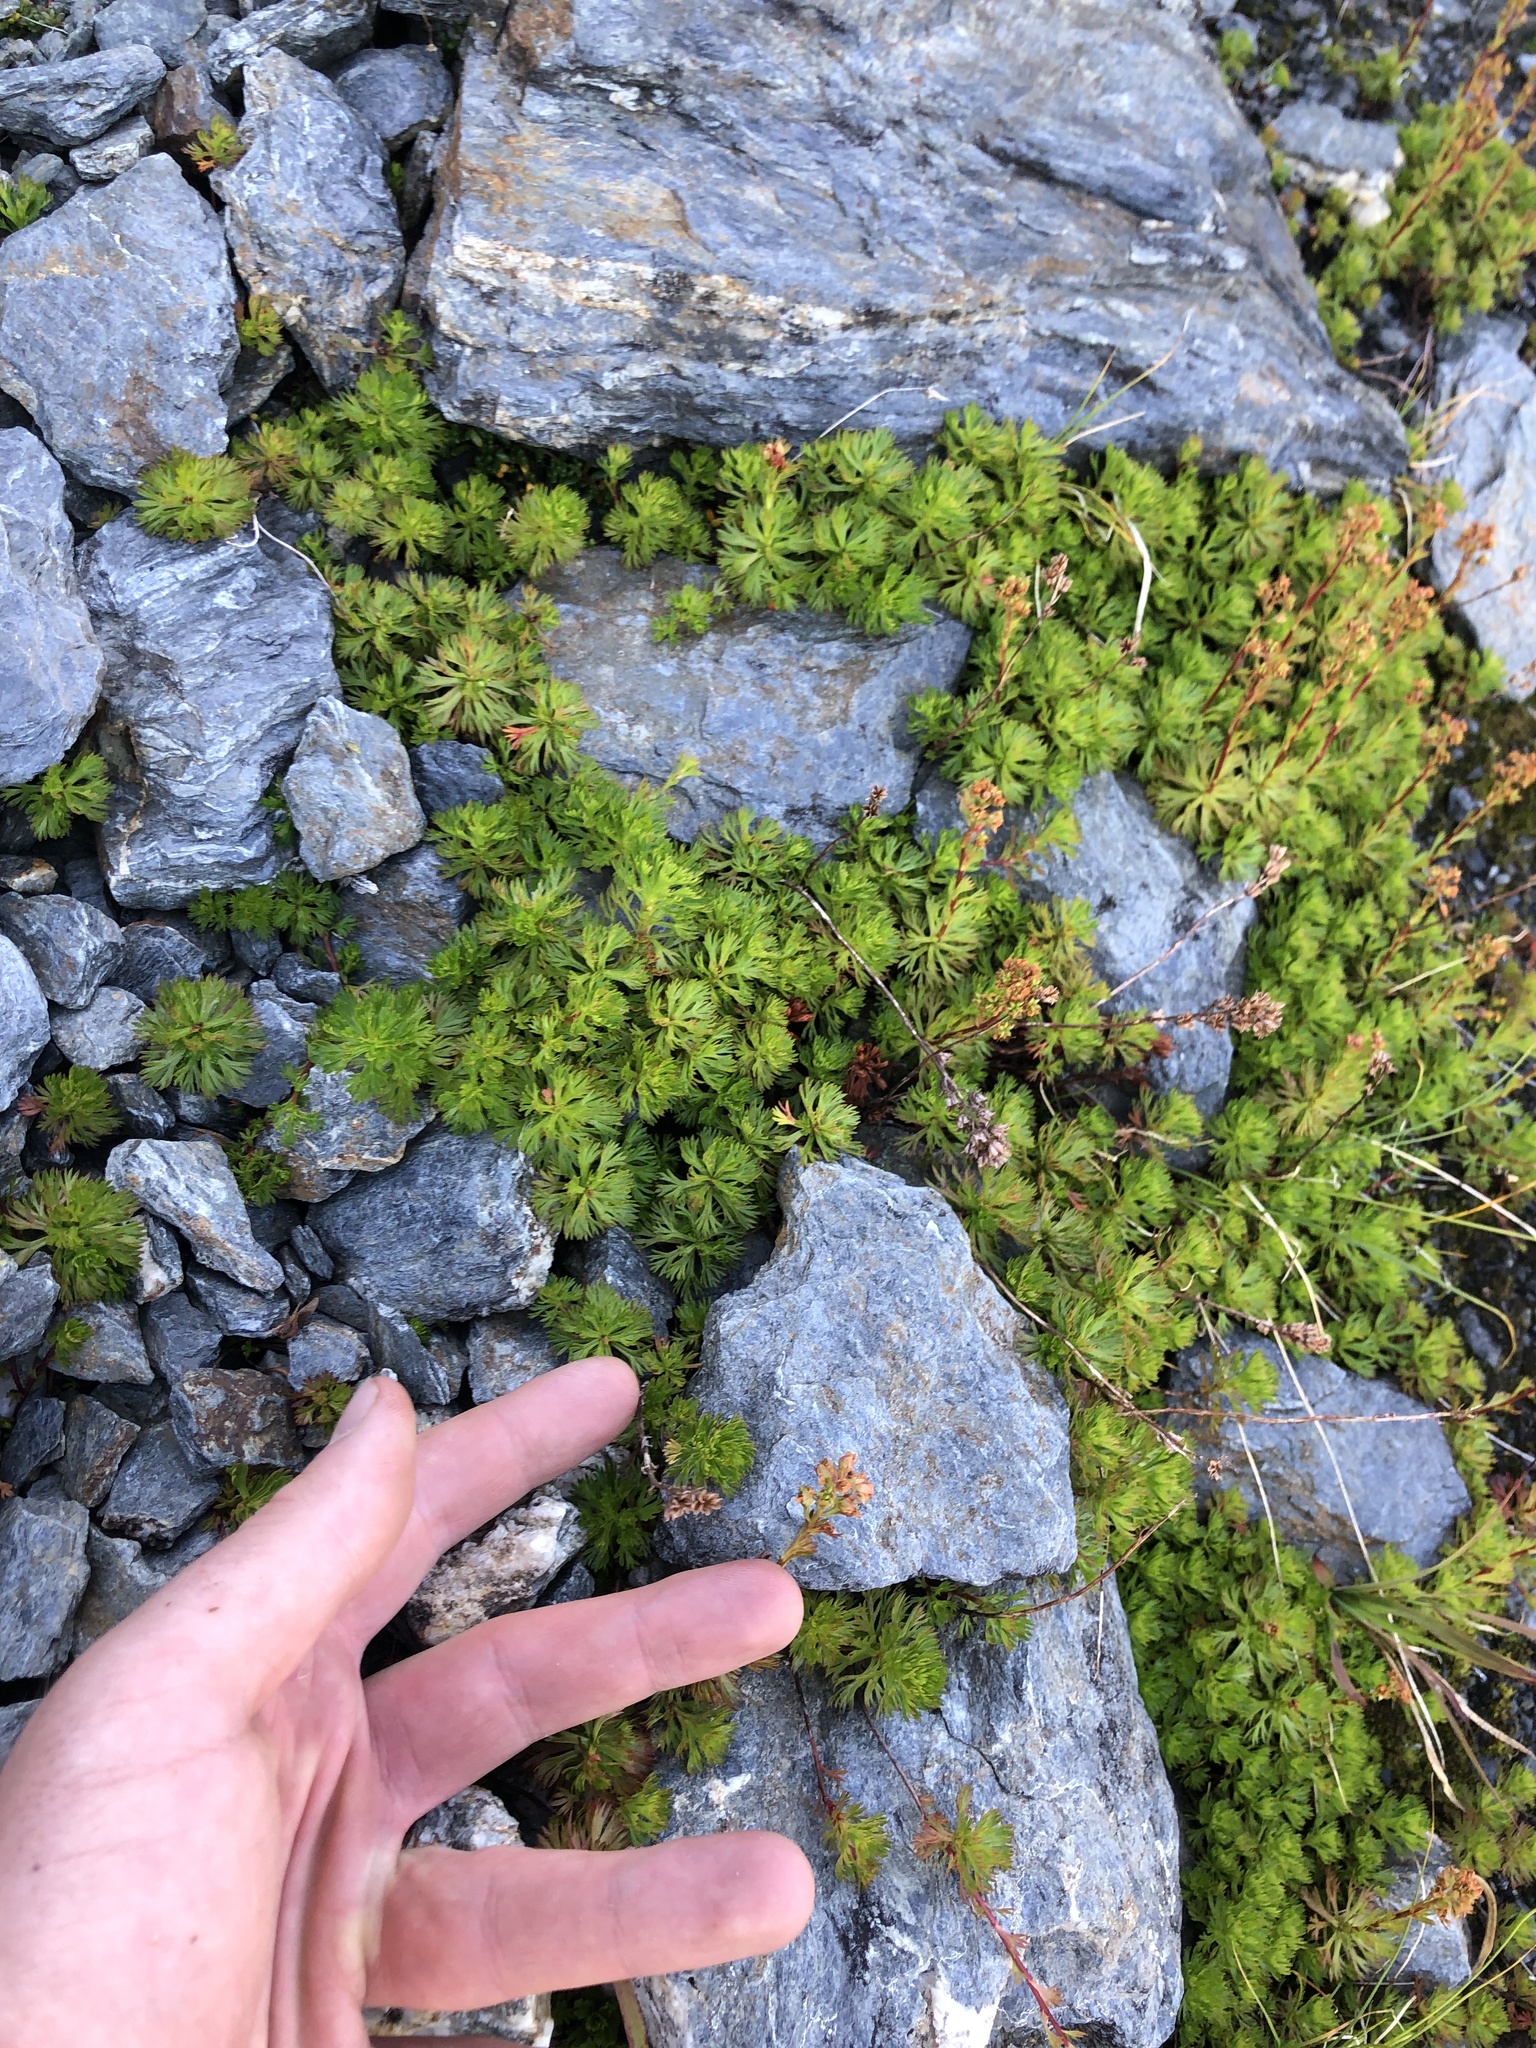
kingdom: Plantae
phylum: Tracheophyta
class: Magnoliopsida
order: Rosales
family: Rosaceae
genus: Luetkea
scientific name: Luetkea pectinata
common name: Partridgefoot
